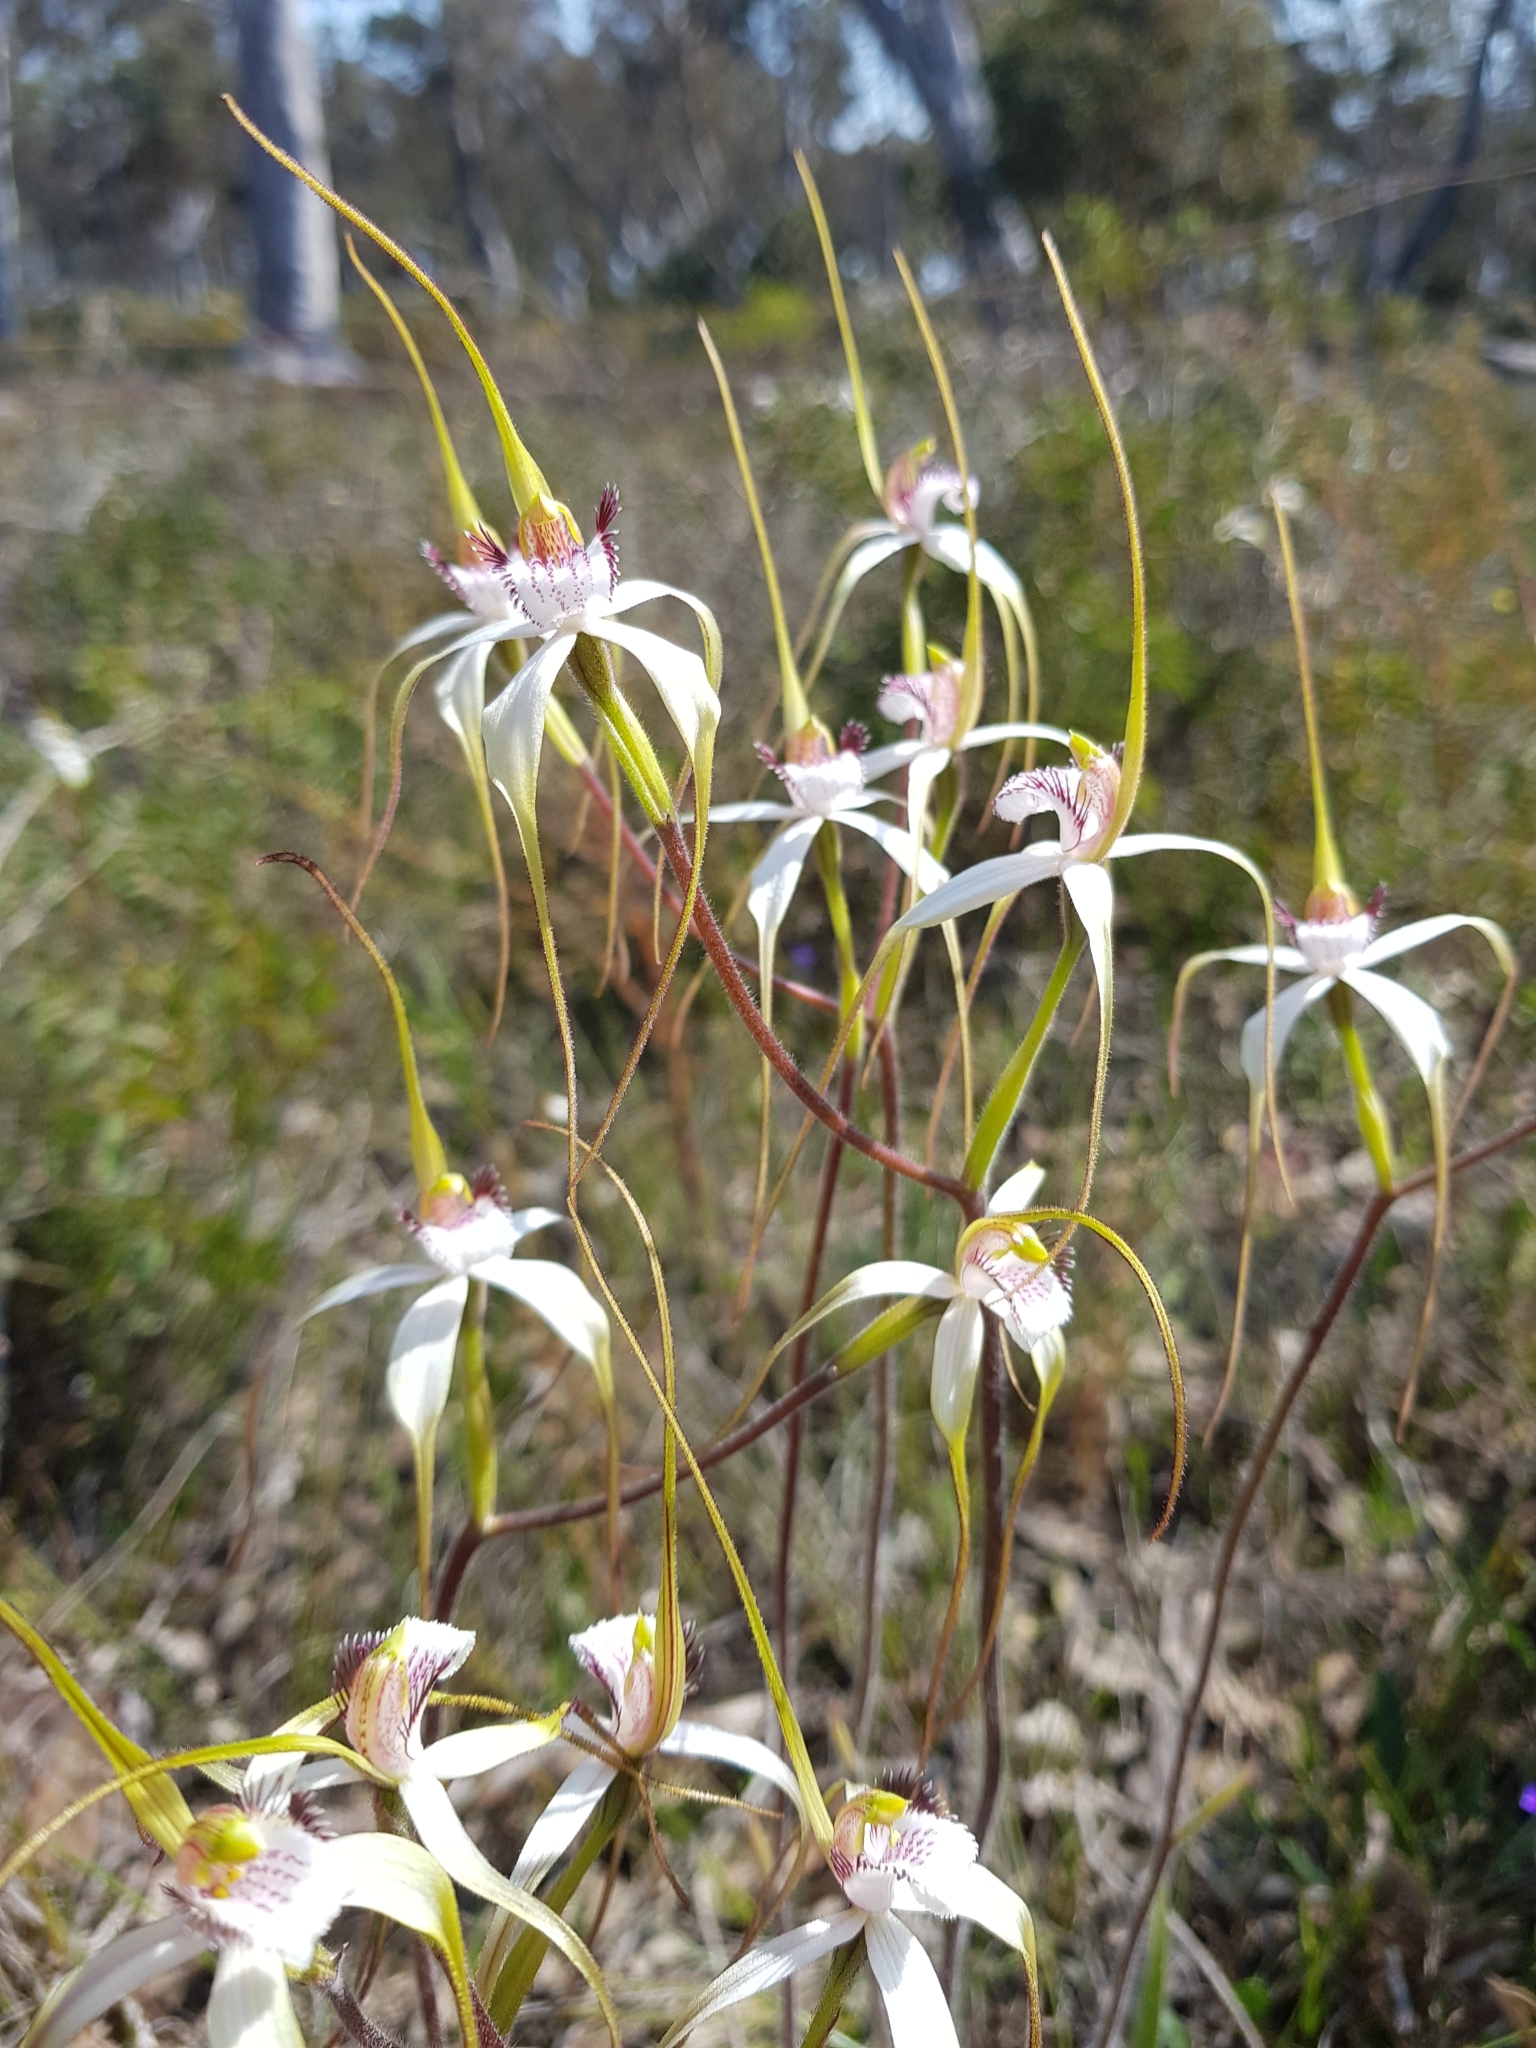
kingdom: Plantae
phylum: Tracheophyta
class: Liliopsida
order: Asparagales
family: Orchidaceae
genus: Caladenia
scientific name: Caladenia longicauda
